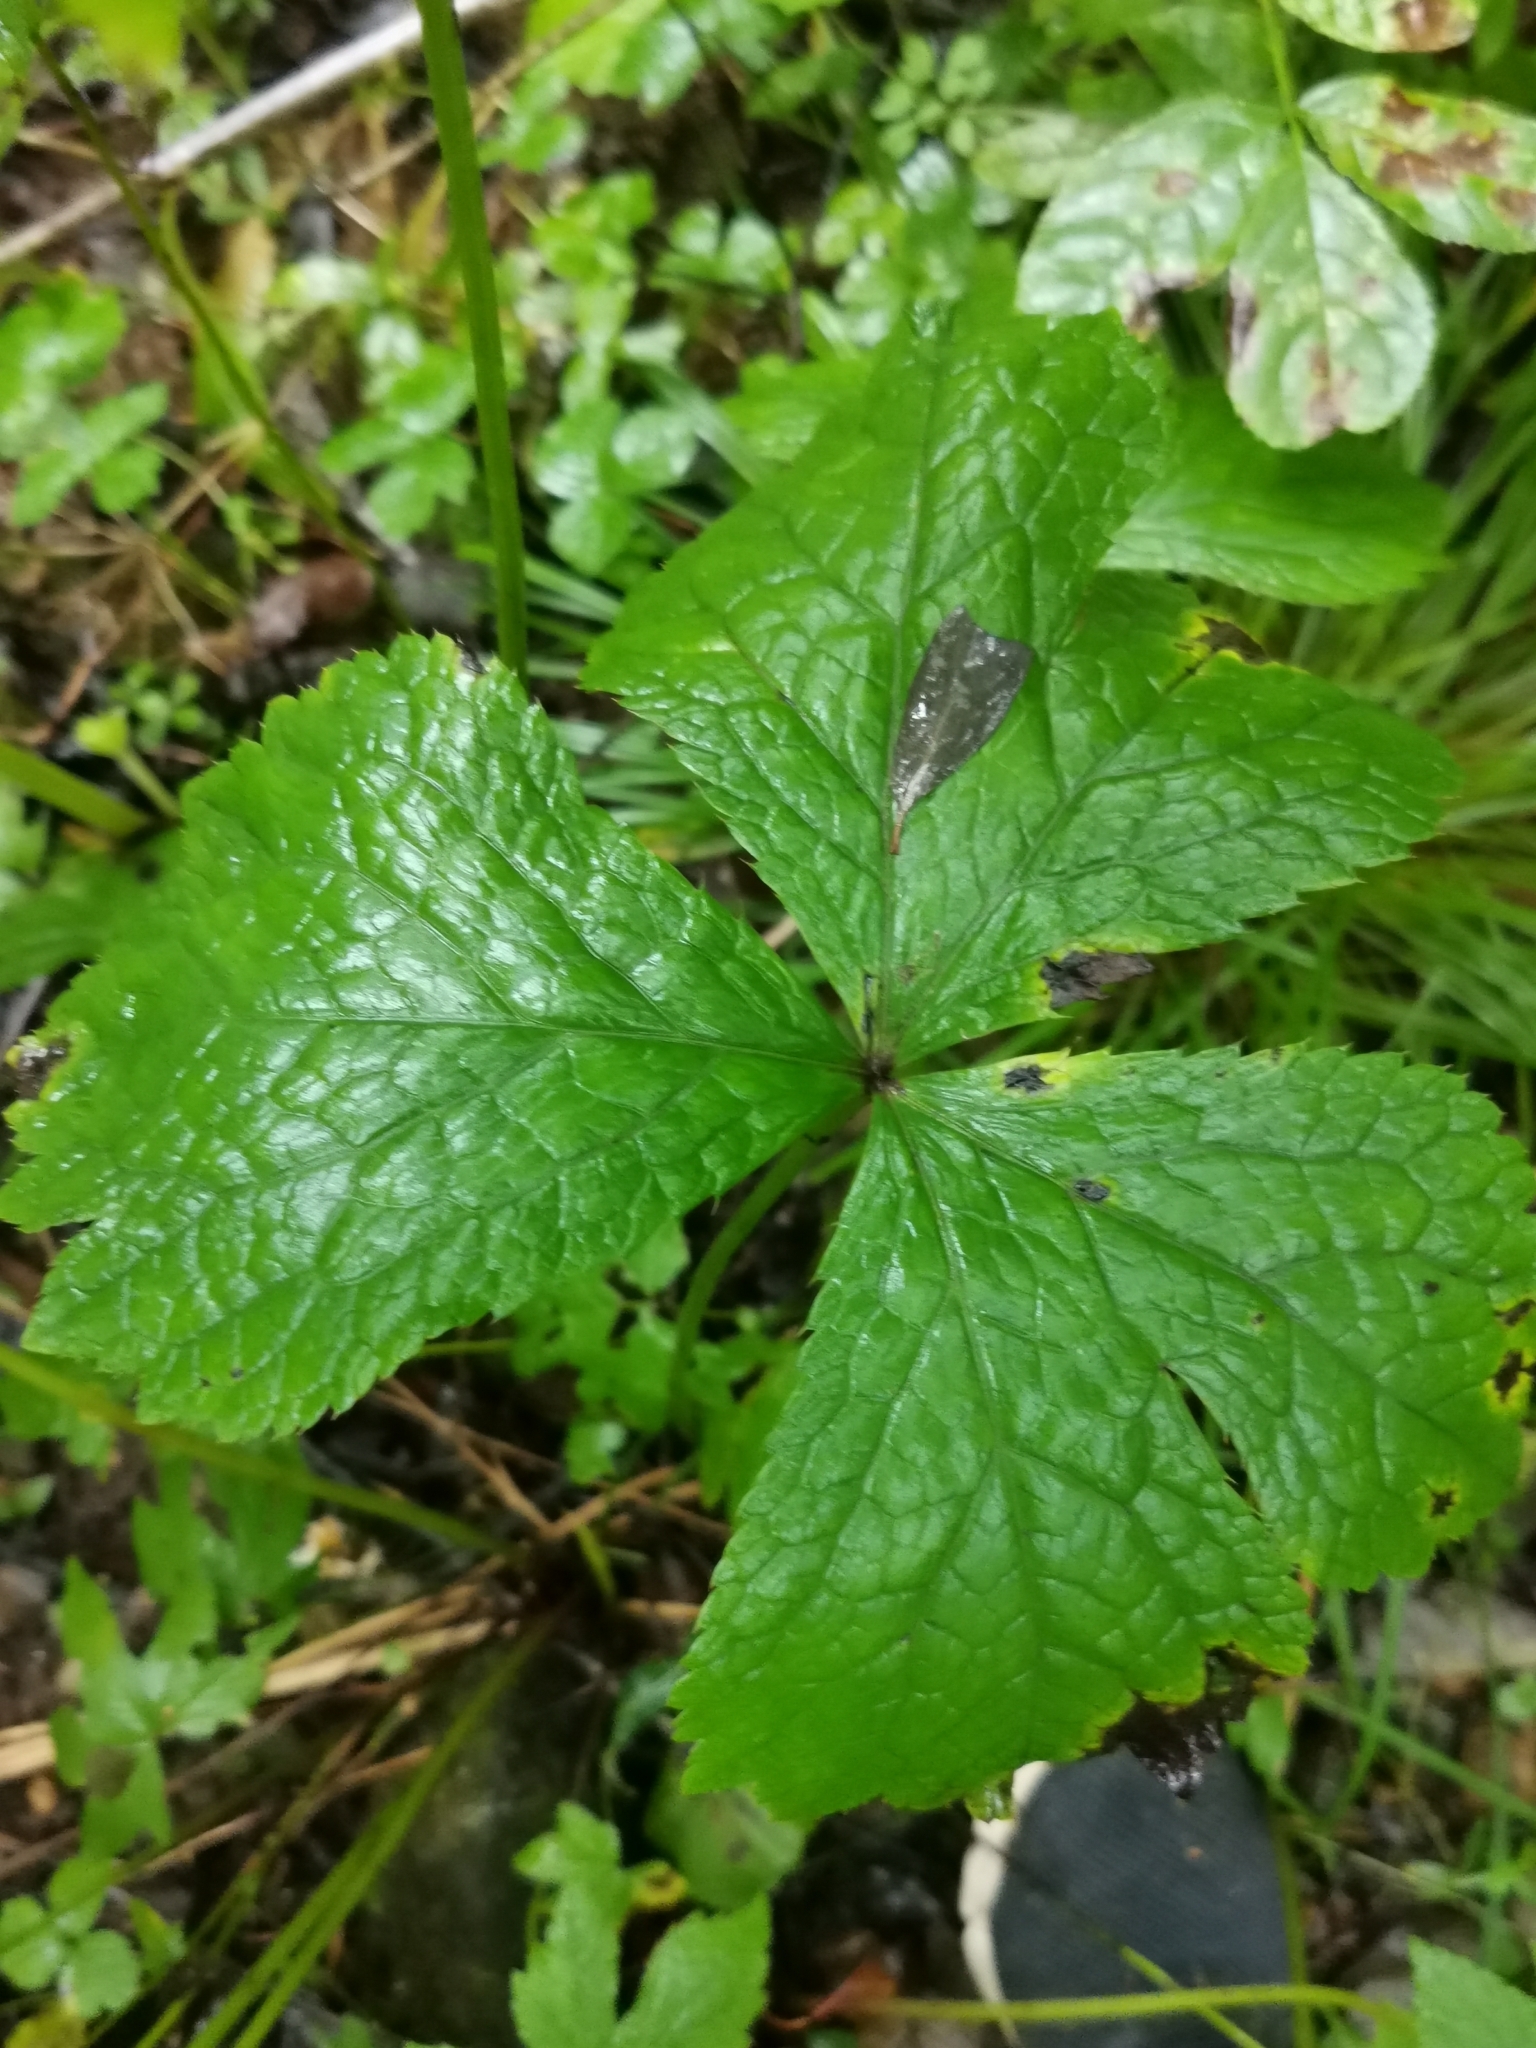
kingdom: Plantae
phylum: Tracheophyta
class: Magnoliopsida
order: Apiales
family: Apiaceae
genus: Sanicula
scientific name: Sanicula rubriflora
